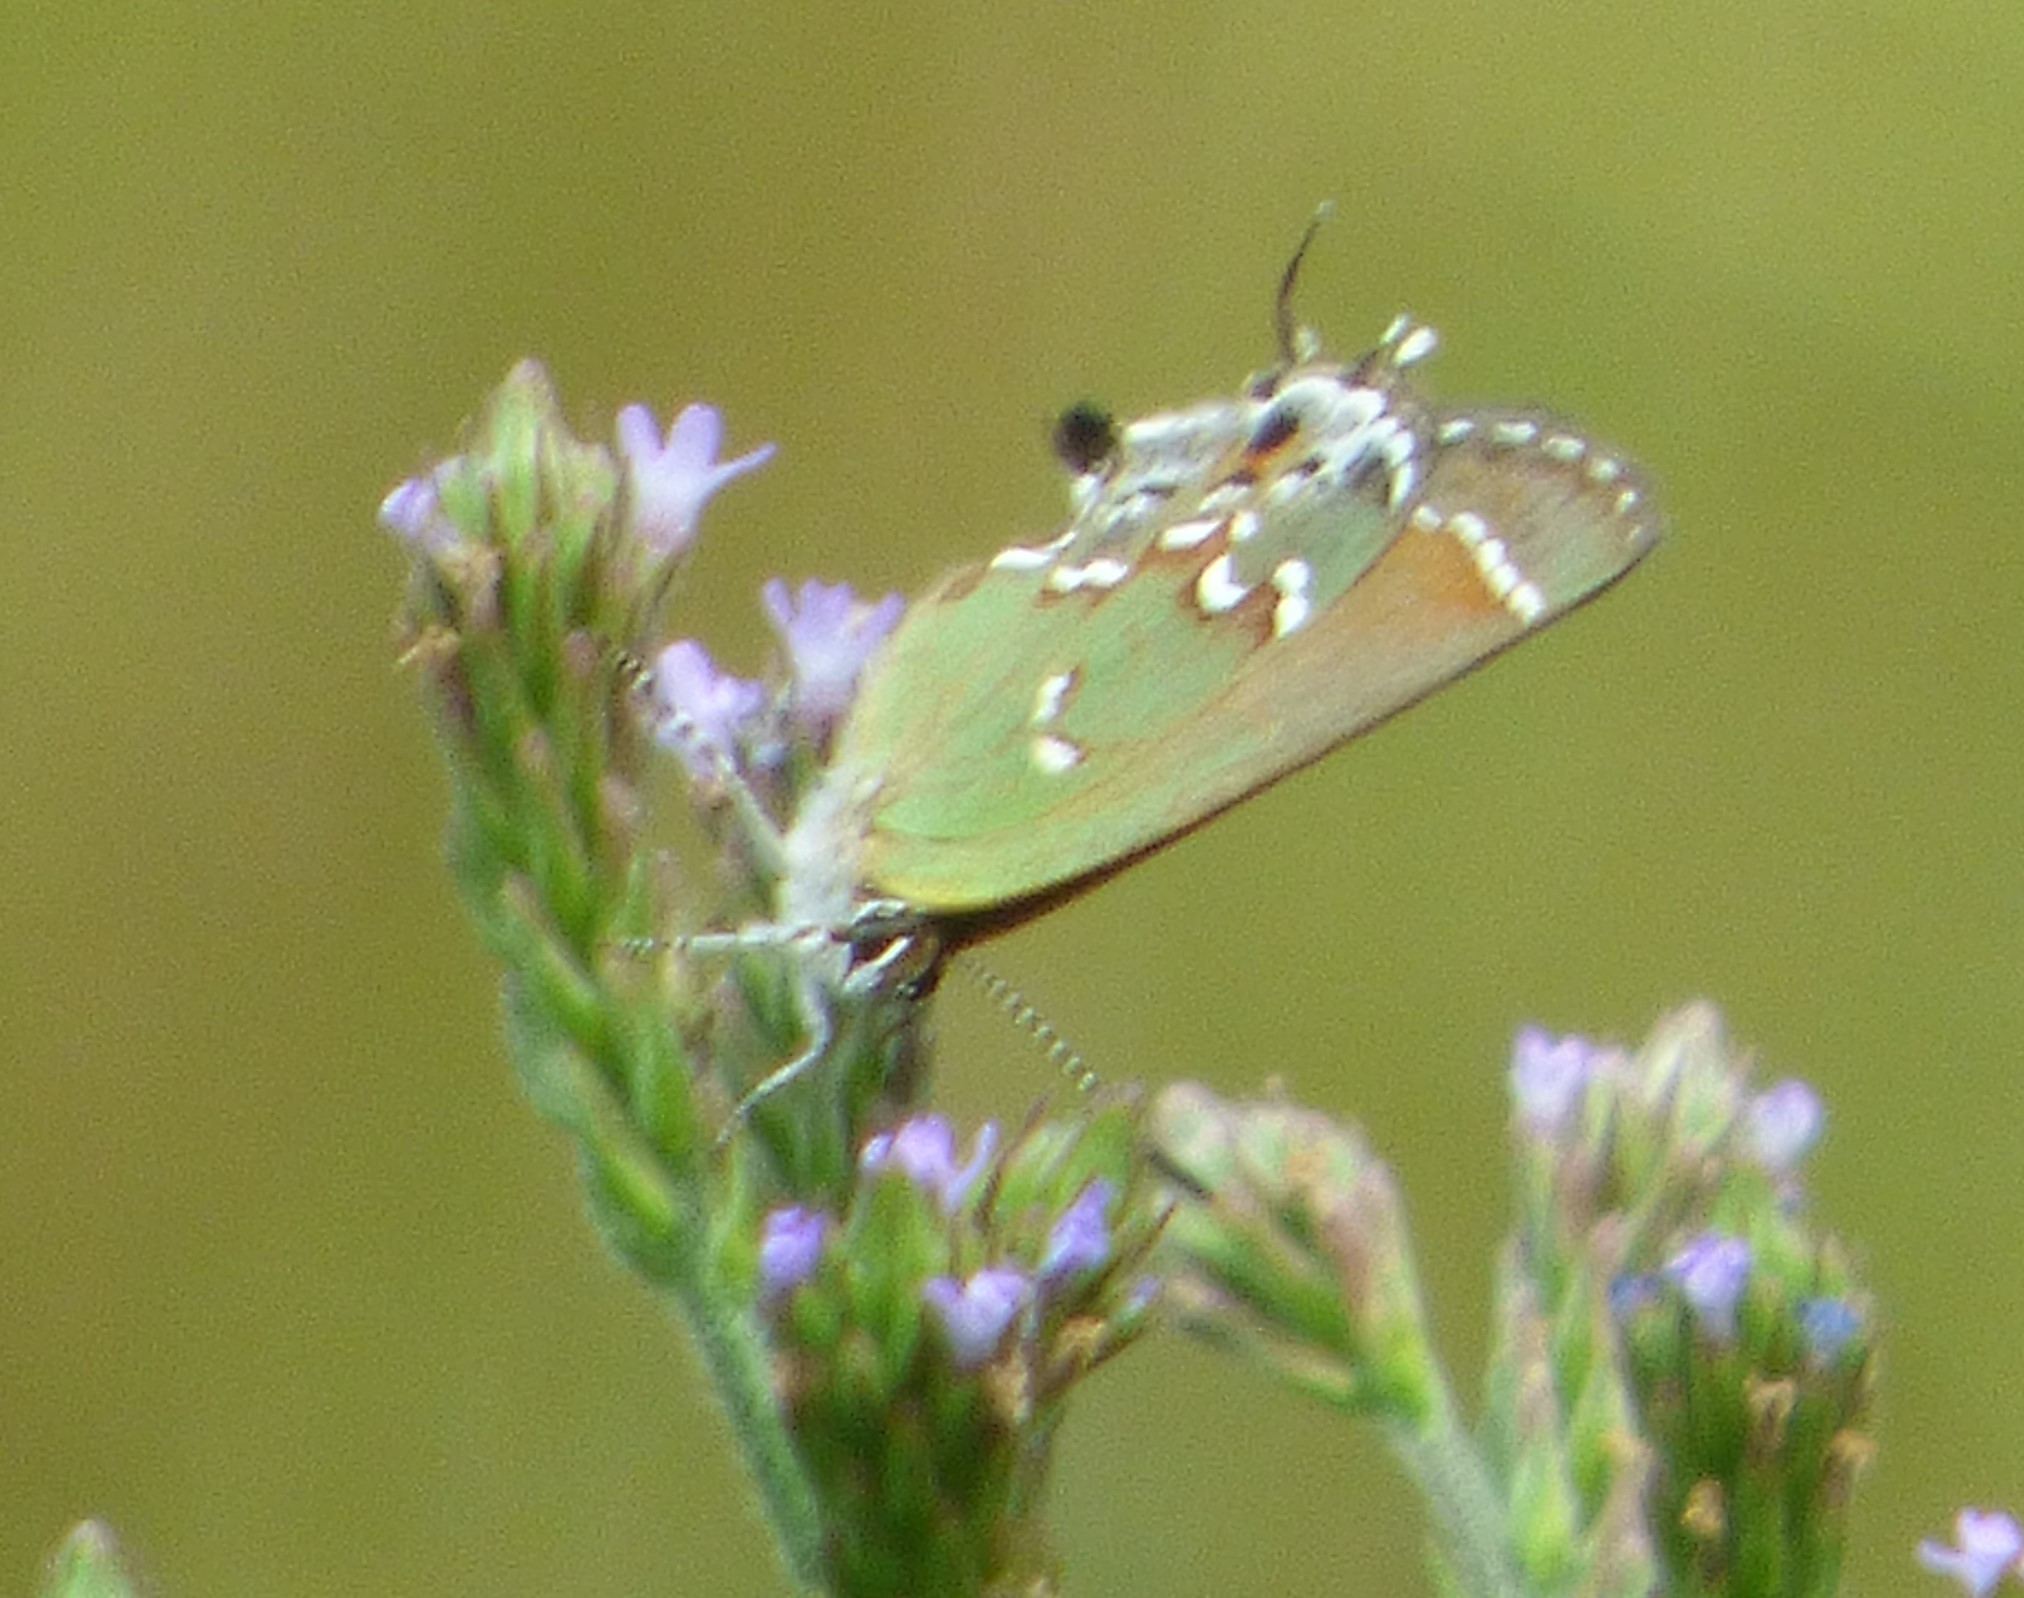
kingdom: Animalia
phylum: Arthropoda
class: Insecta
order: Lepidoptera
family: Lycaenidae
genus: Mitoura
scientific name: Mitoura gryneus
